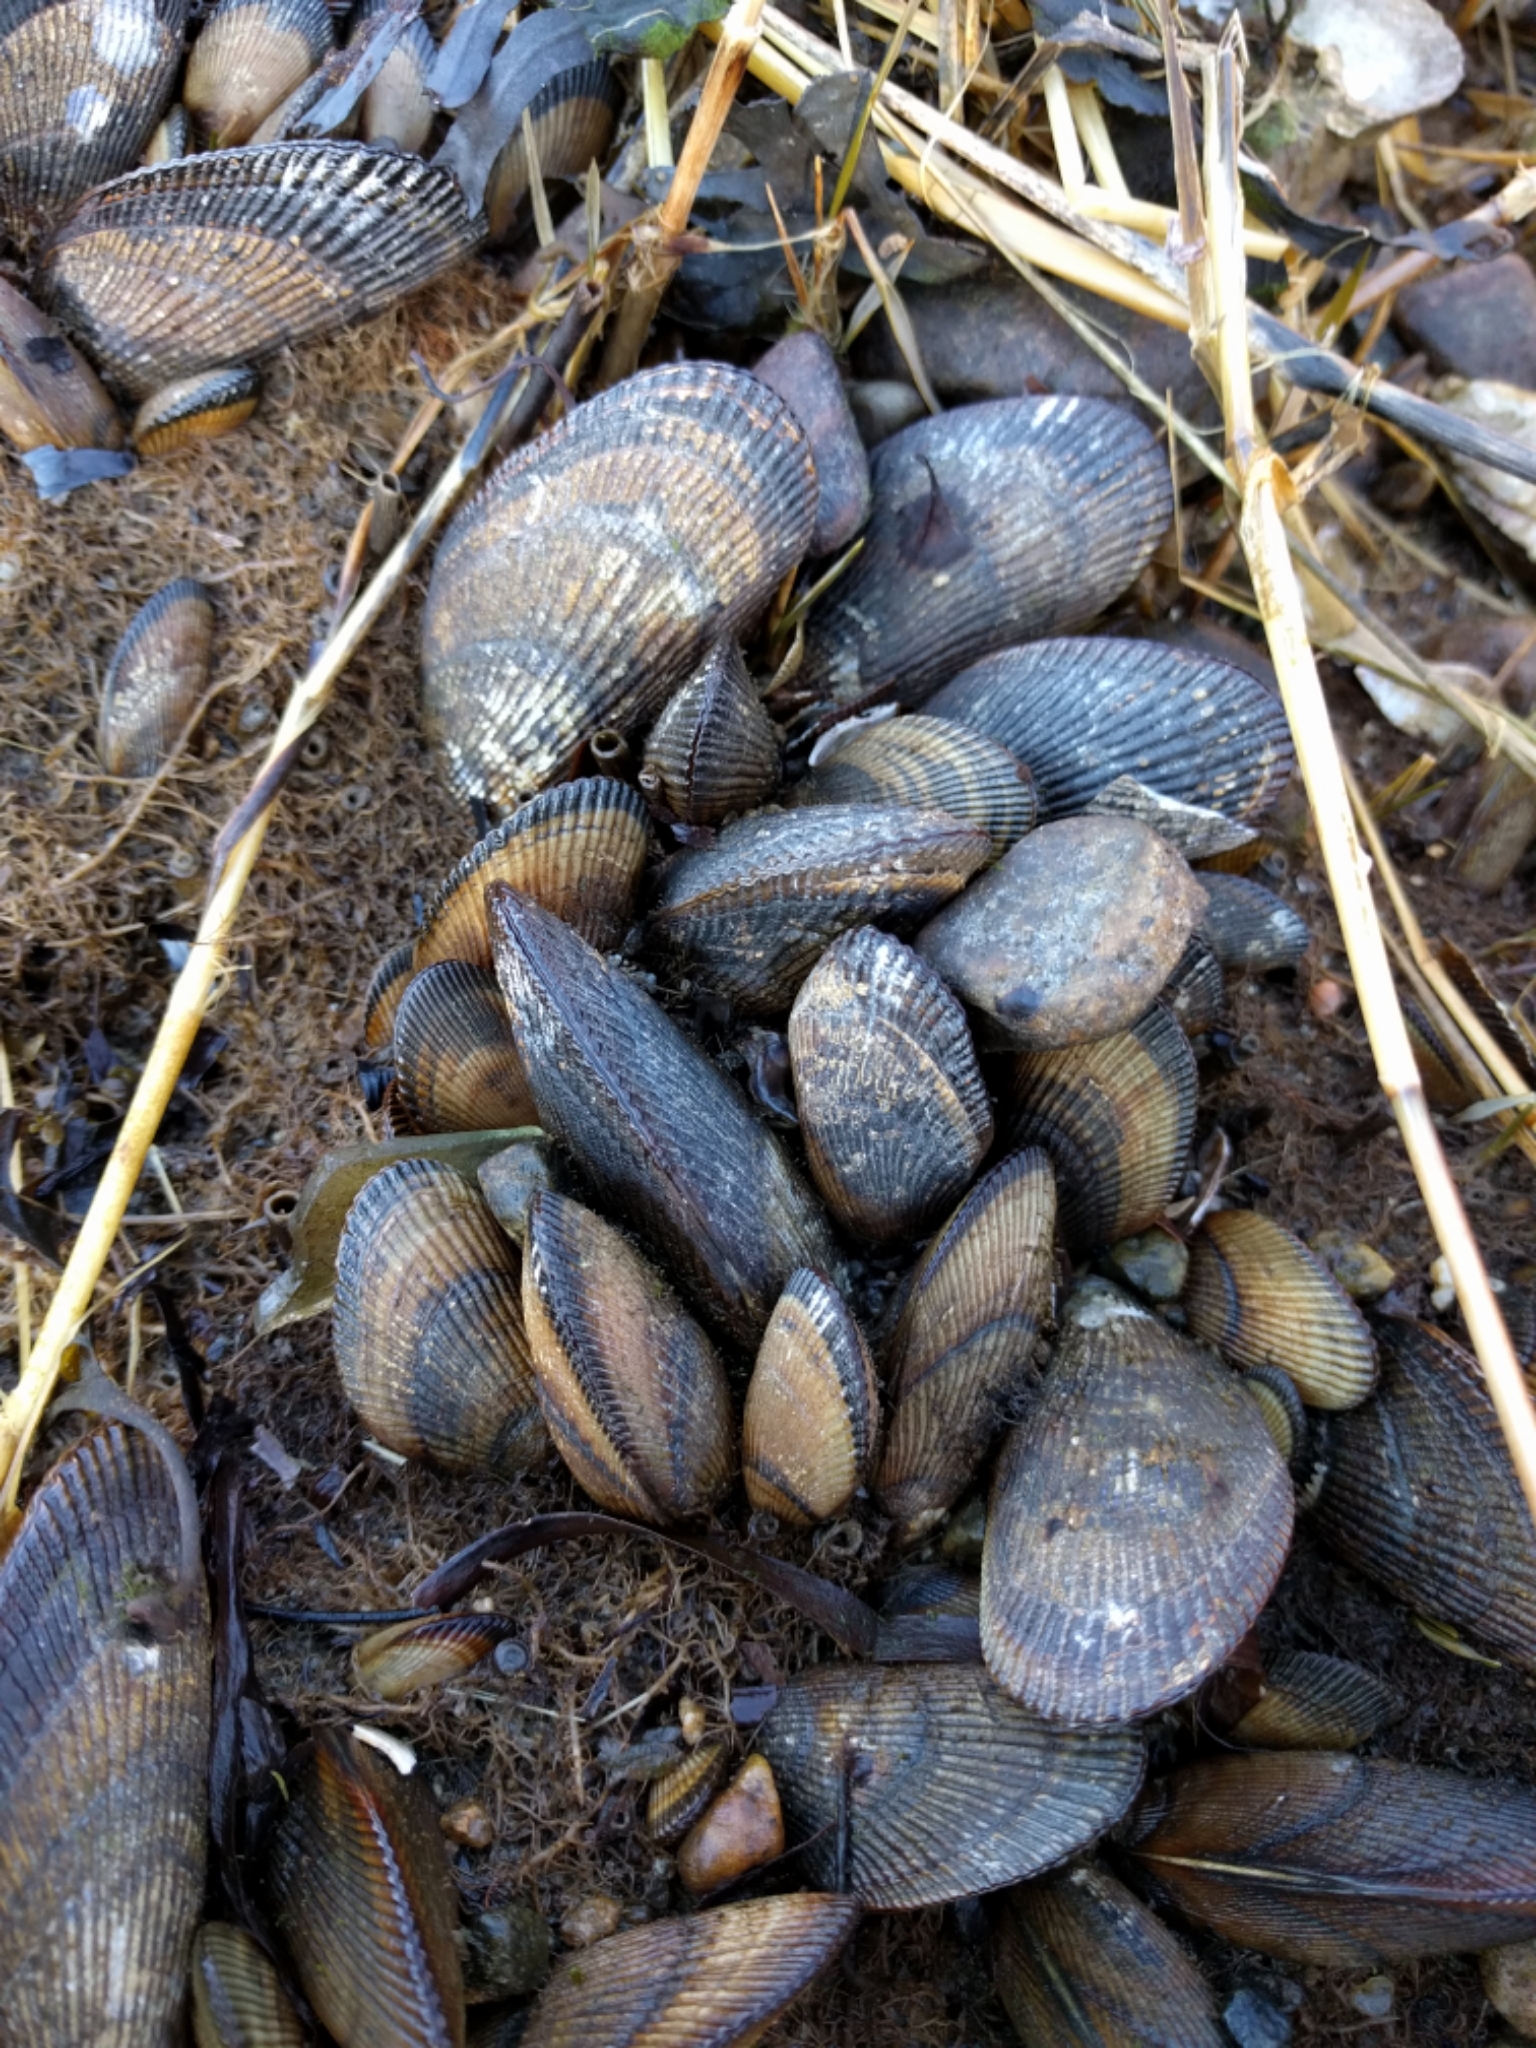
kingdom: Animalia
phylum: Mollusca
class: Bivalvia
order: Mytilida
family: Mytilidae
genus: Geukensia
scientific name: Geukensia demissa
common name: Ribbed mussel
